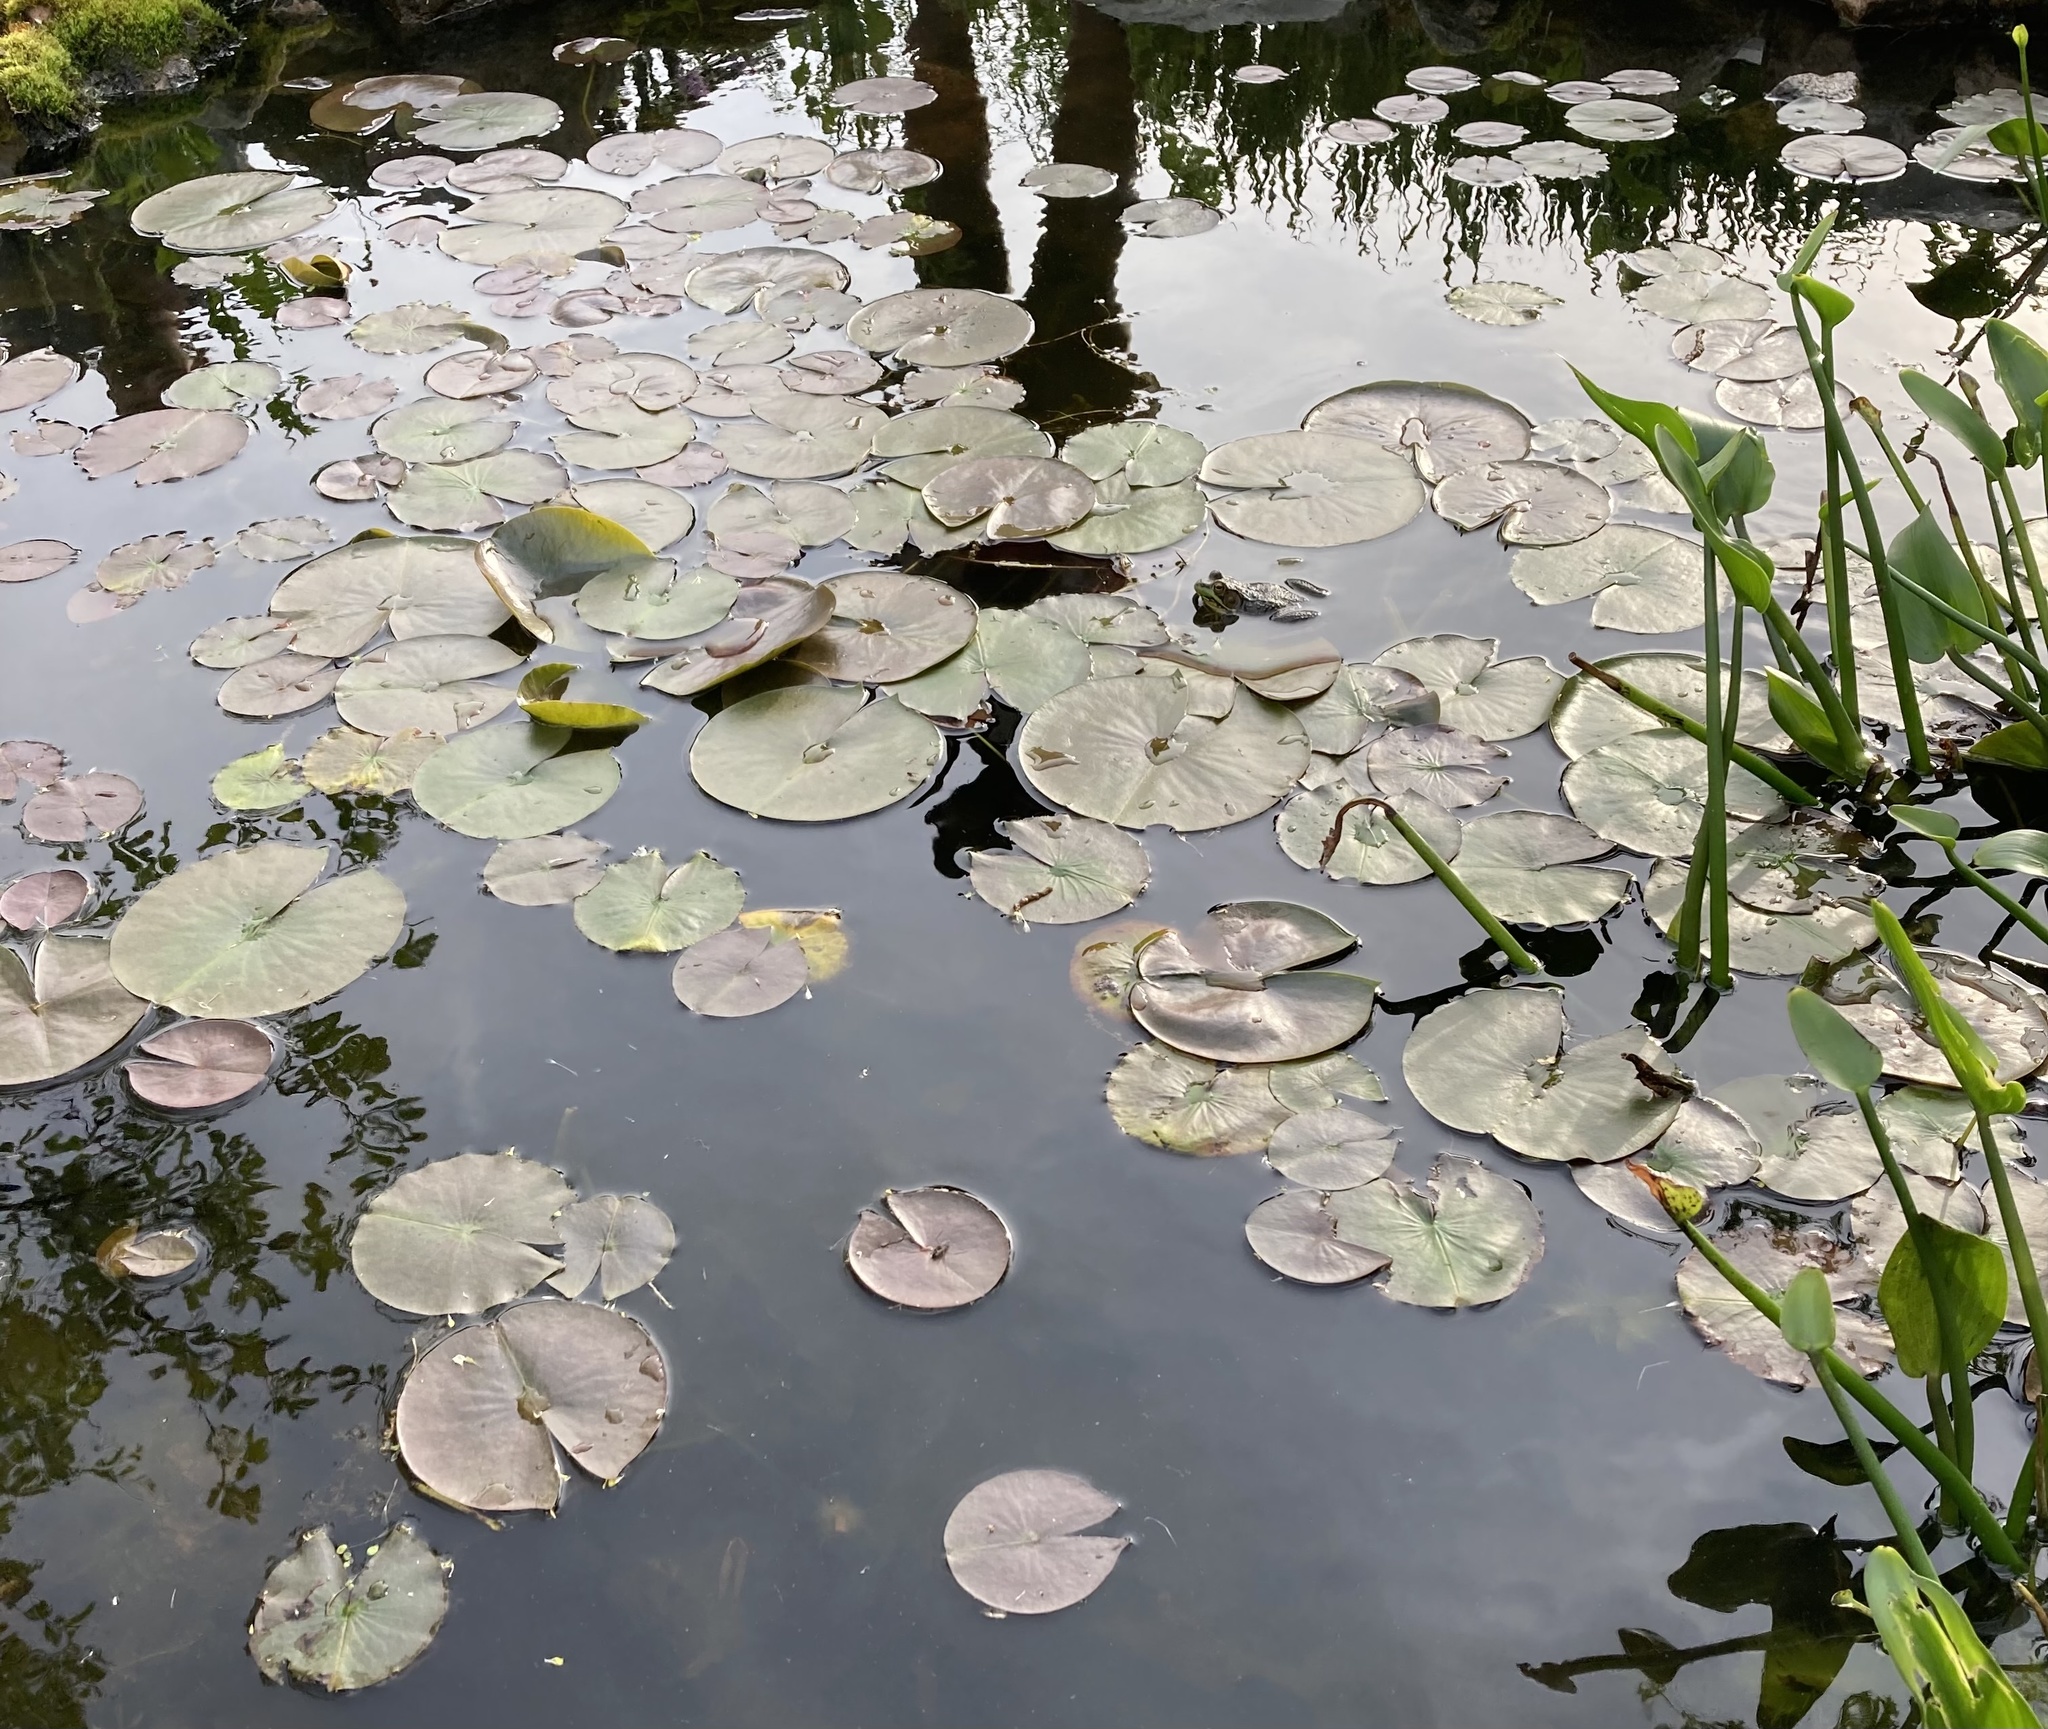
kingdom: Animalia
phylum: Chordata
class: Amphibia
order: Anura
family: Ranidae
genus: Lithobates
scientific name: Lithobates clamitans
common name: Green frog
